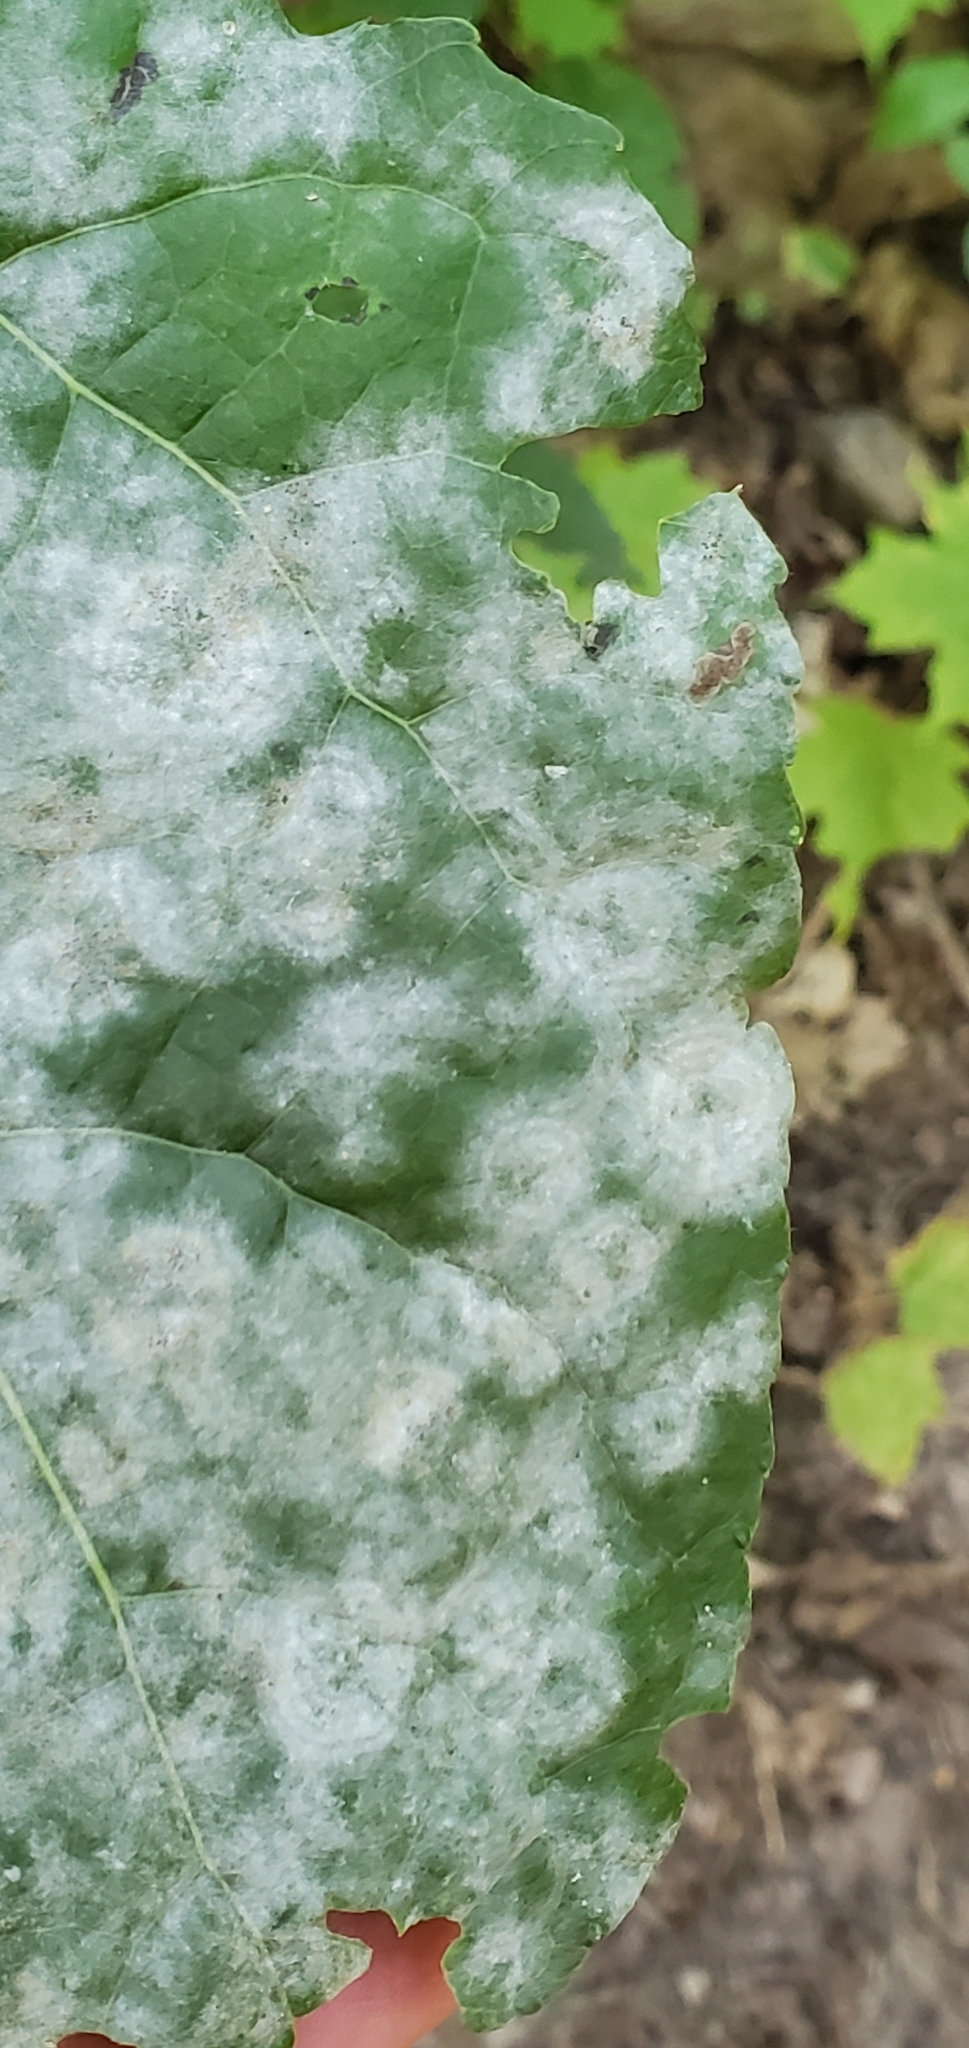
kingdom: Fungi
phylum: Ascomycota
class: Leotiomycetes
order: Helotiales
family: Erysiphaceae
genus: Erysiphe
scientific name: Erysiphe adunca
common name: Willow mildew
